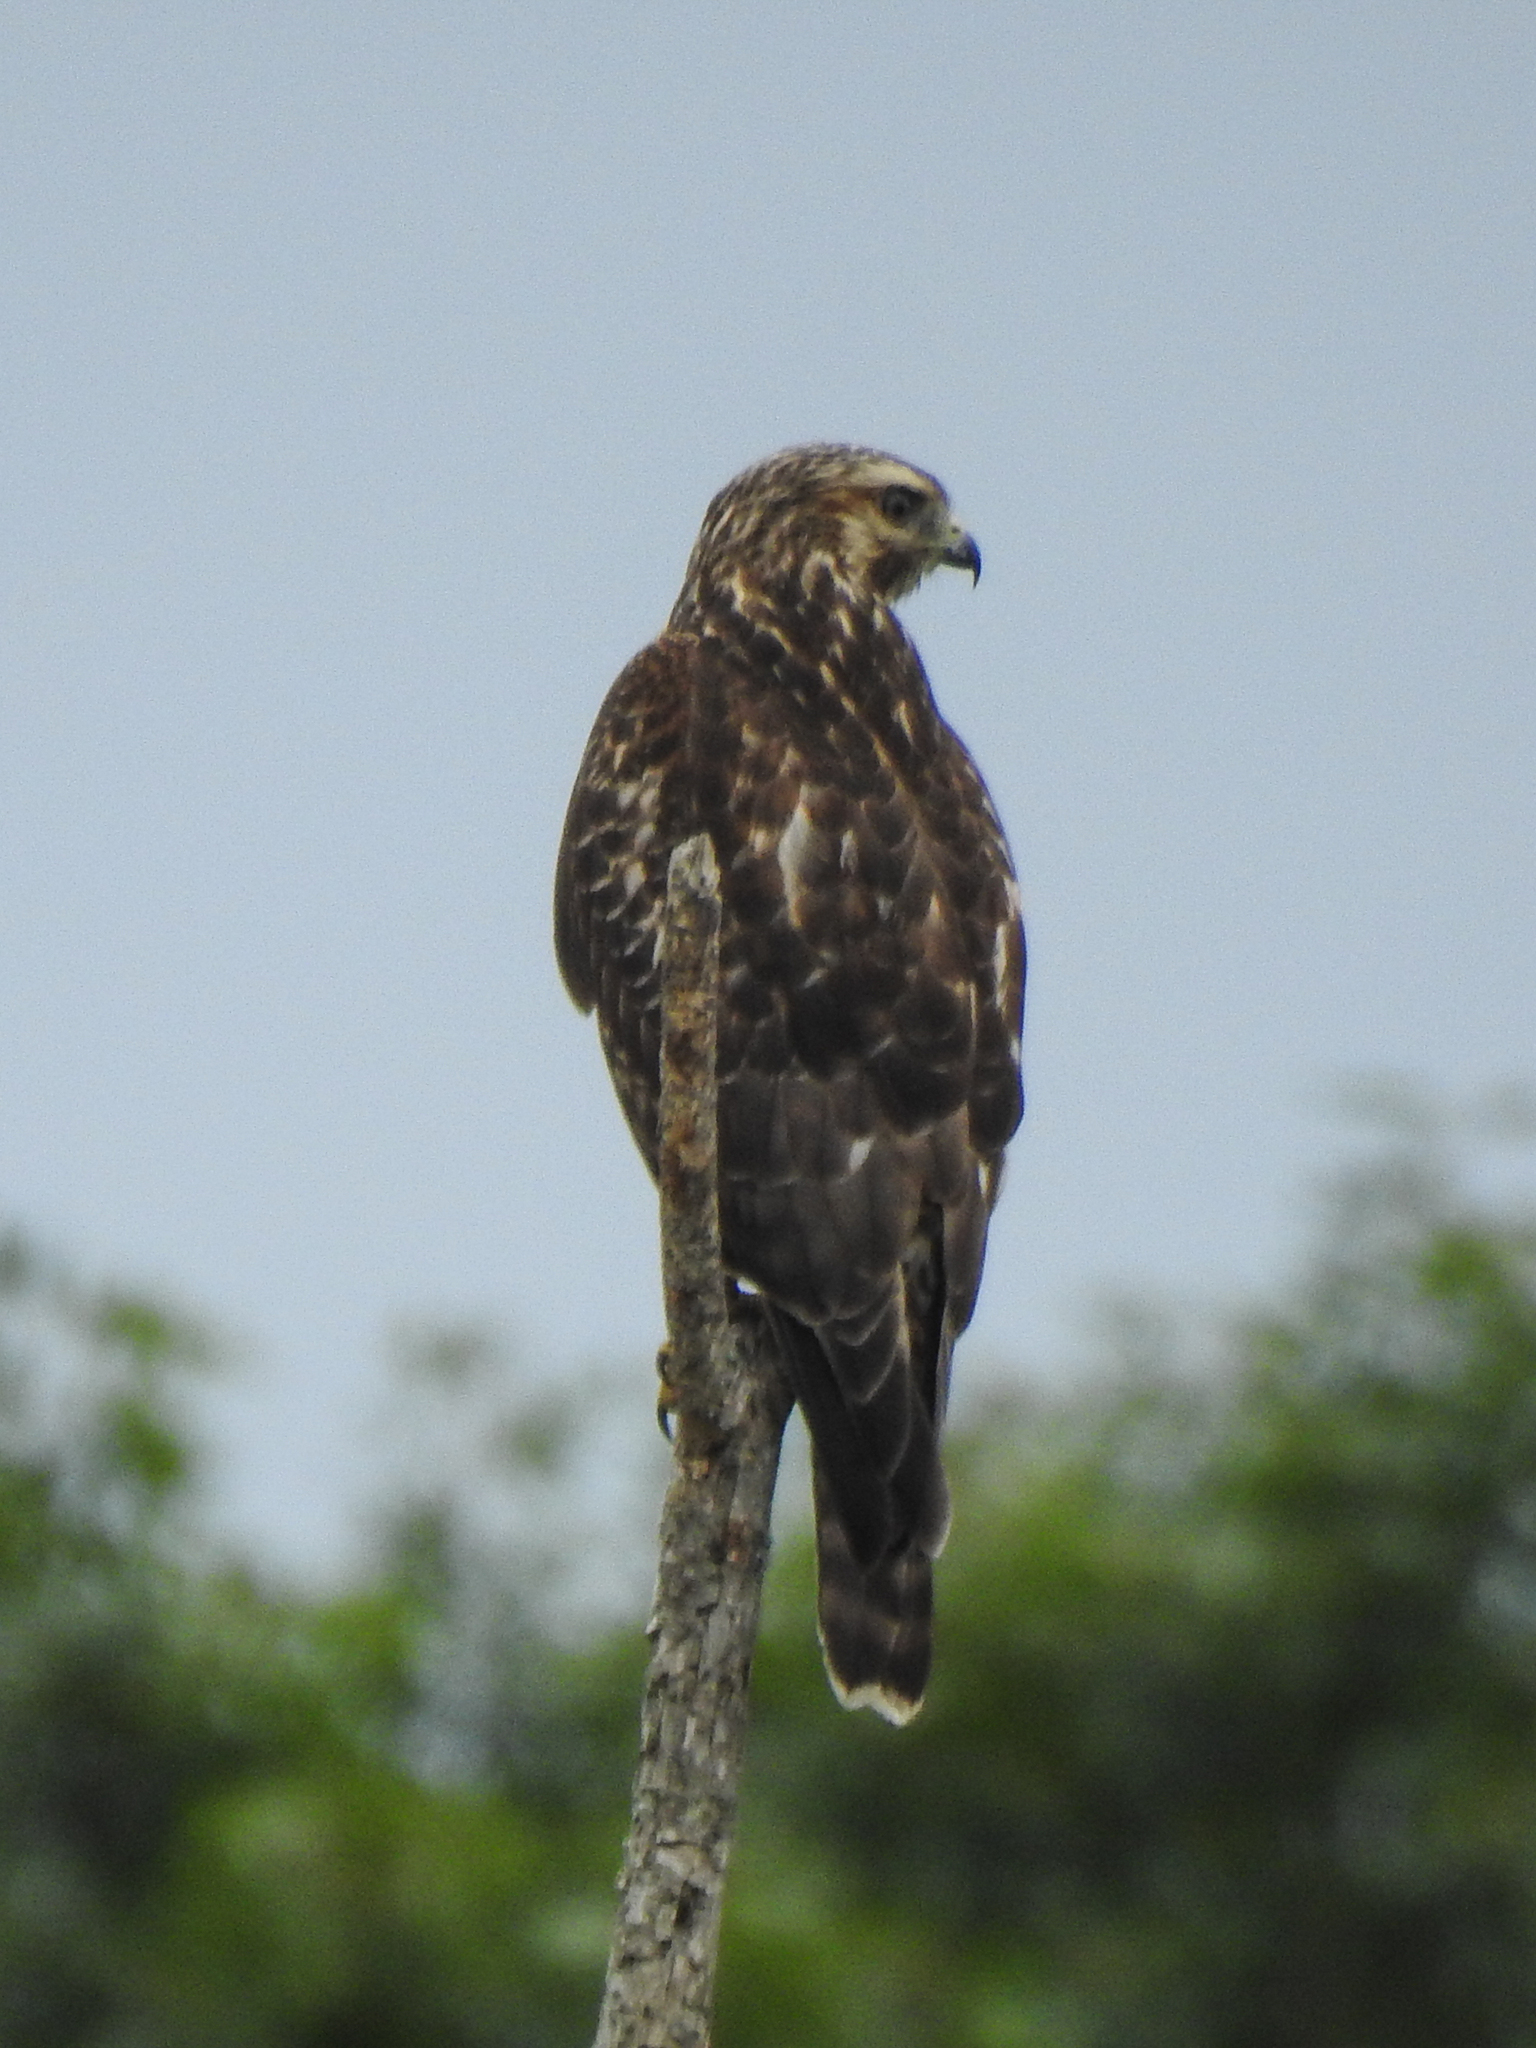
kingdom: Animalia
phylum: Chordata
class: Aves
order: Accipitriformes
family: Accipitridae
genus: Buteo
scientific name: Buteo platypterus
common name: Broad-winged hawk
